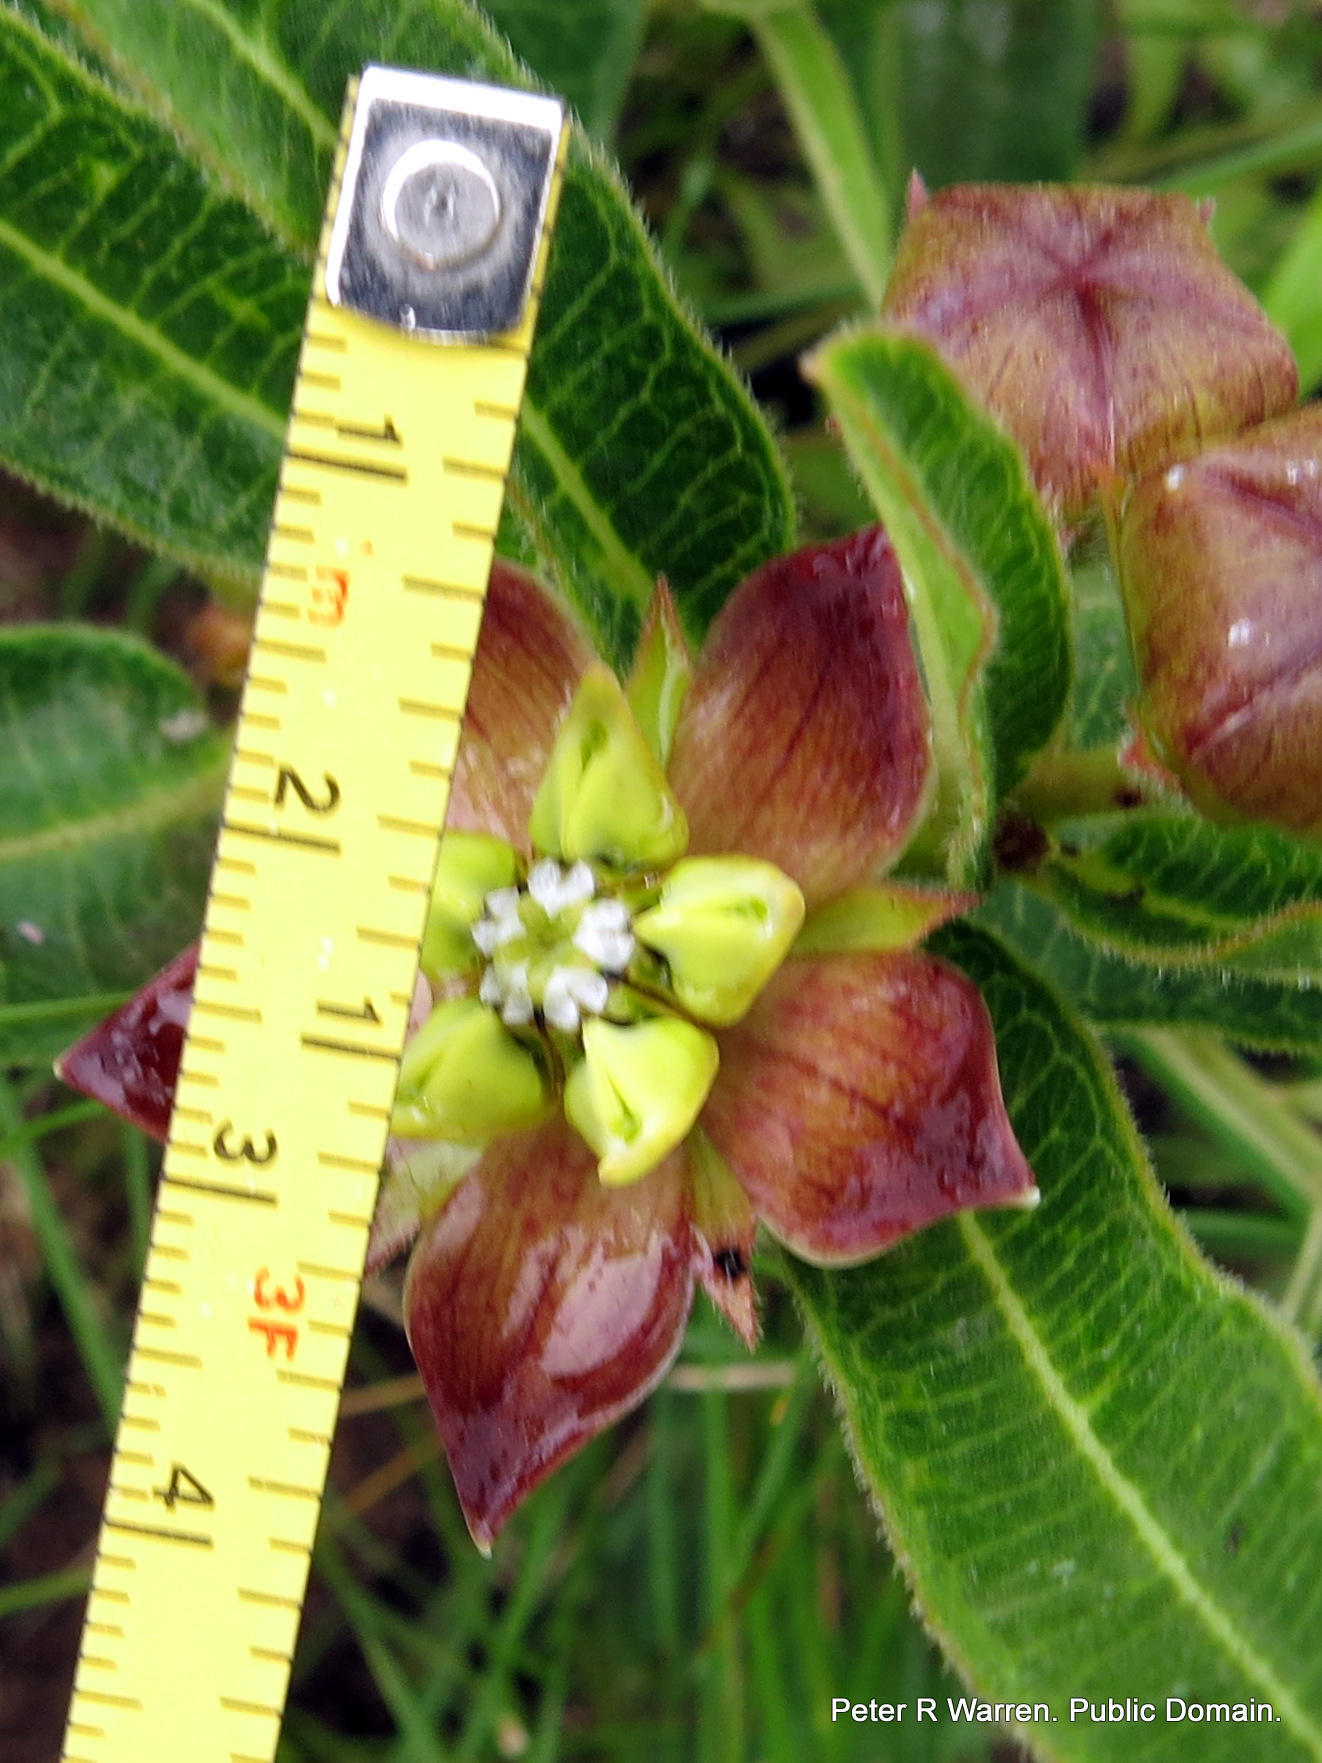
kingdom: Plantae
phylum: Tracheophyta
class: Magnoliopsida
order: Gentianales
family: Apocynaceae
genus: Pachycarpus
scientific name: Pachycarpus concolor
